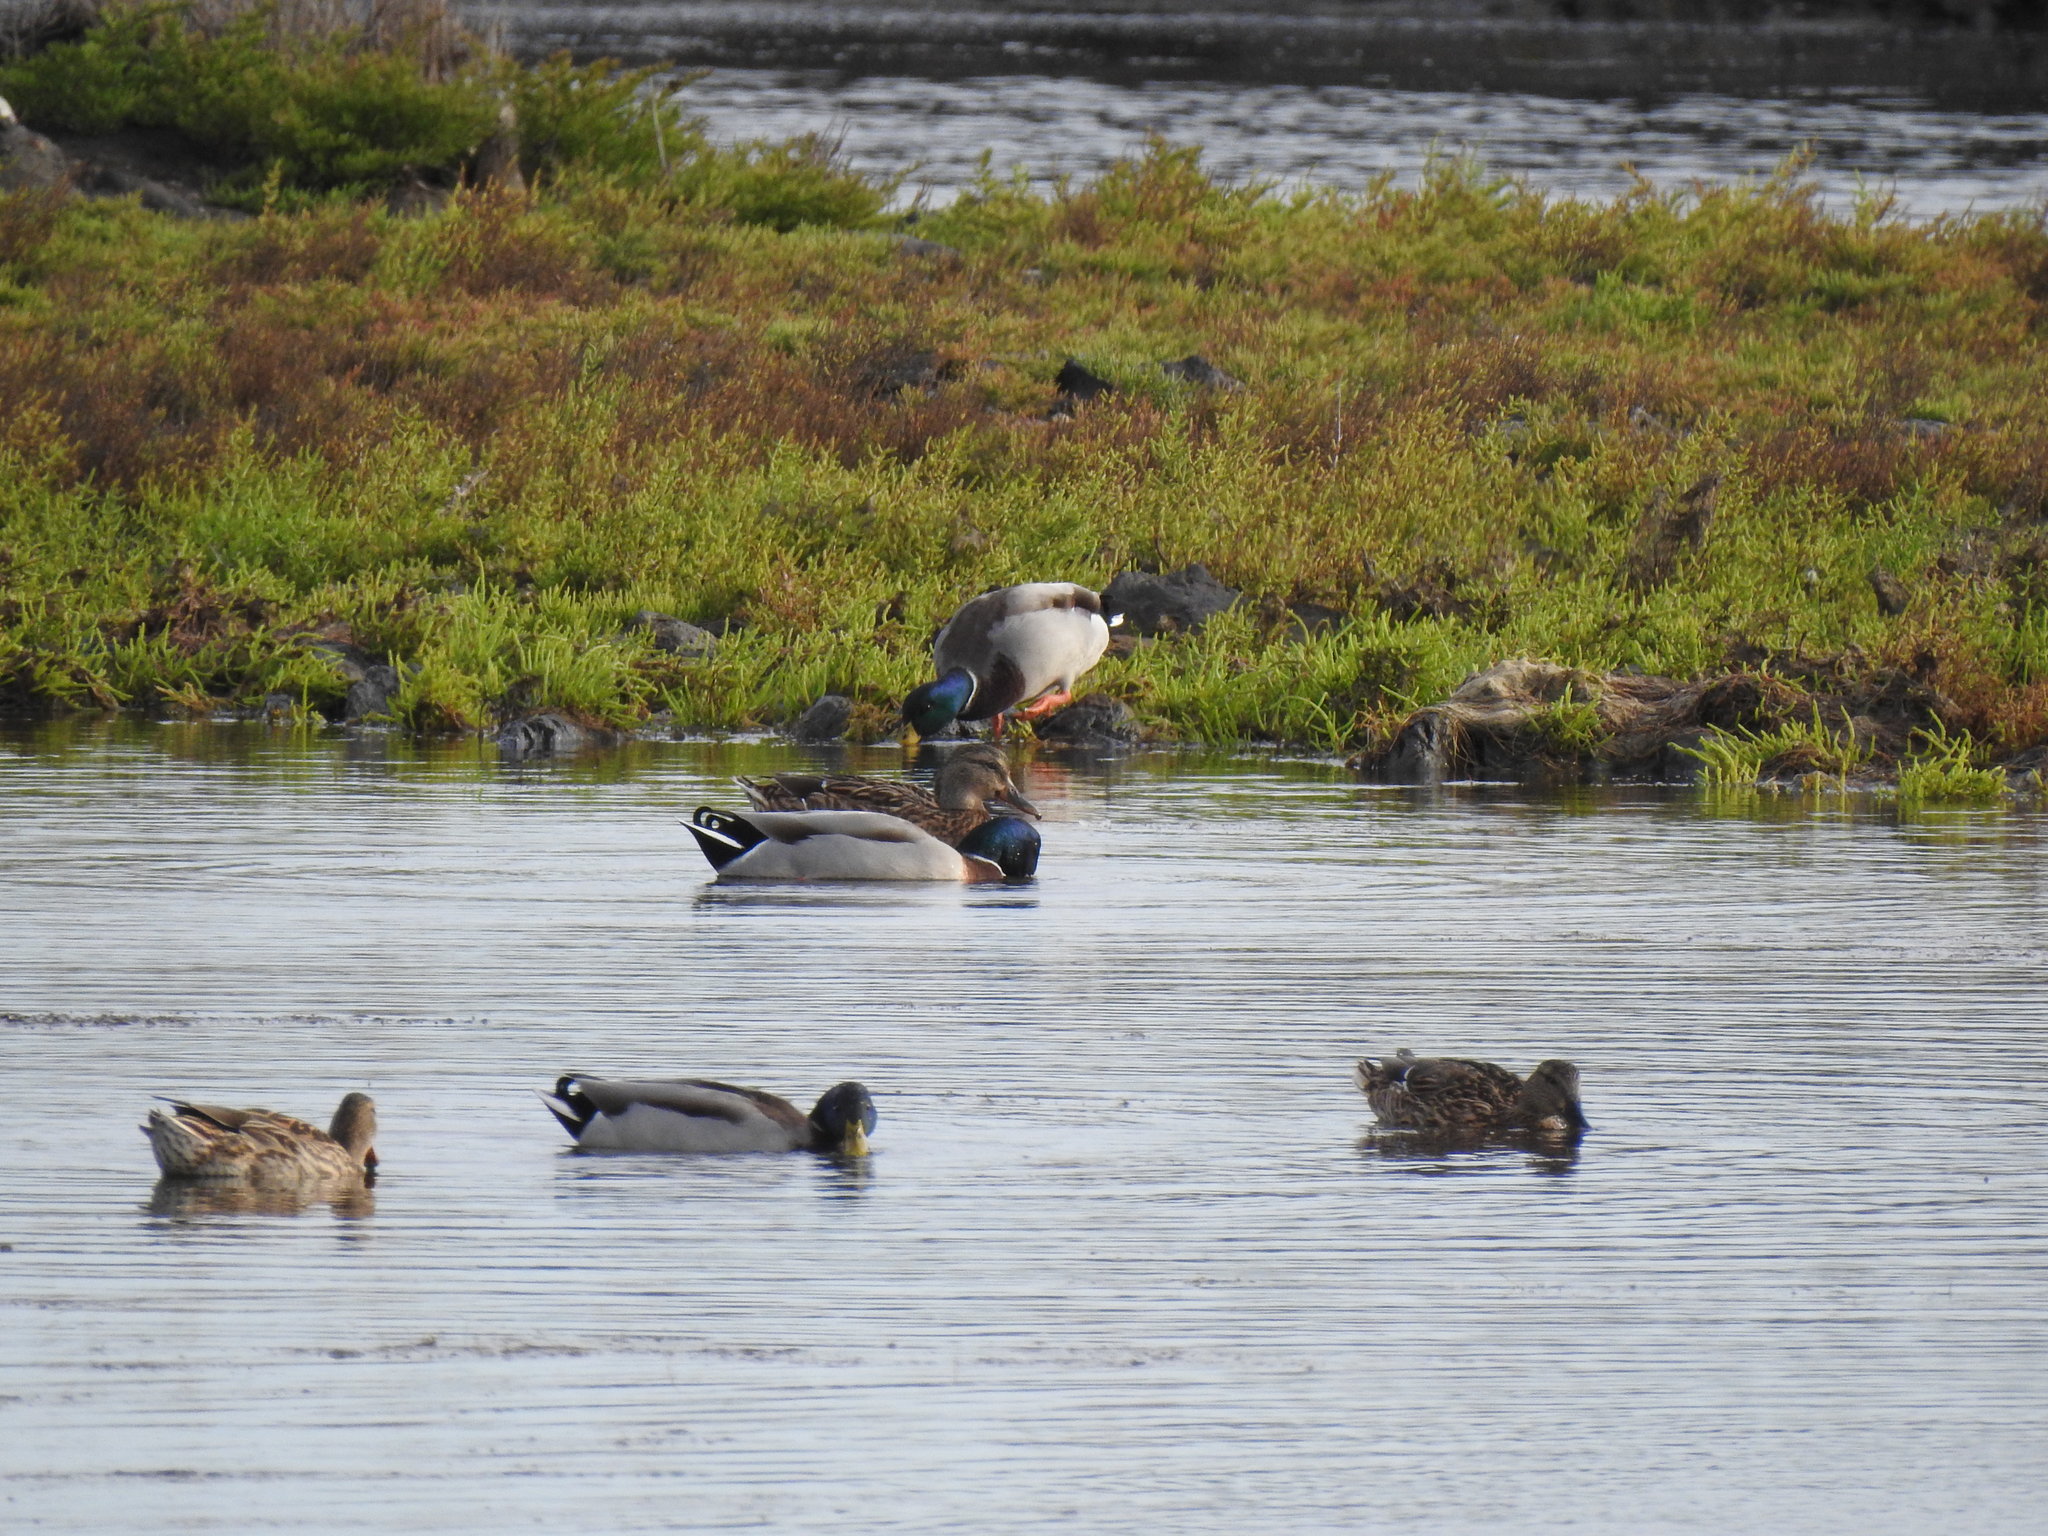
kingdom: Animalia
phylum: Chordata
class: Aves
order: Anseriformes
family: Anatidae
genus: Anas
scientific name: Anas platyrhynchos
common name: Mallard
